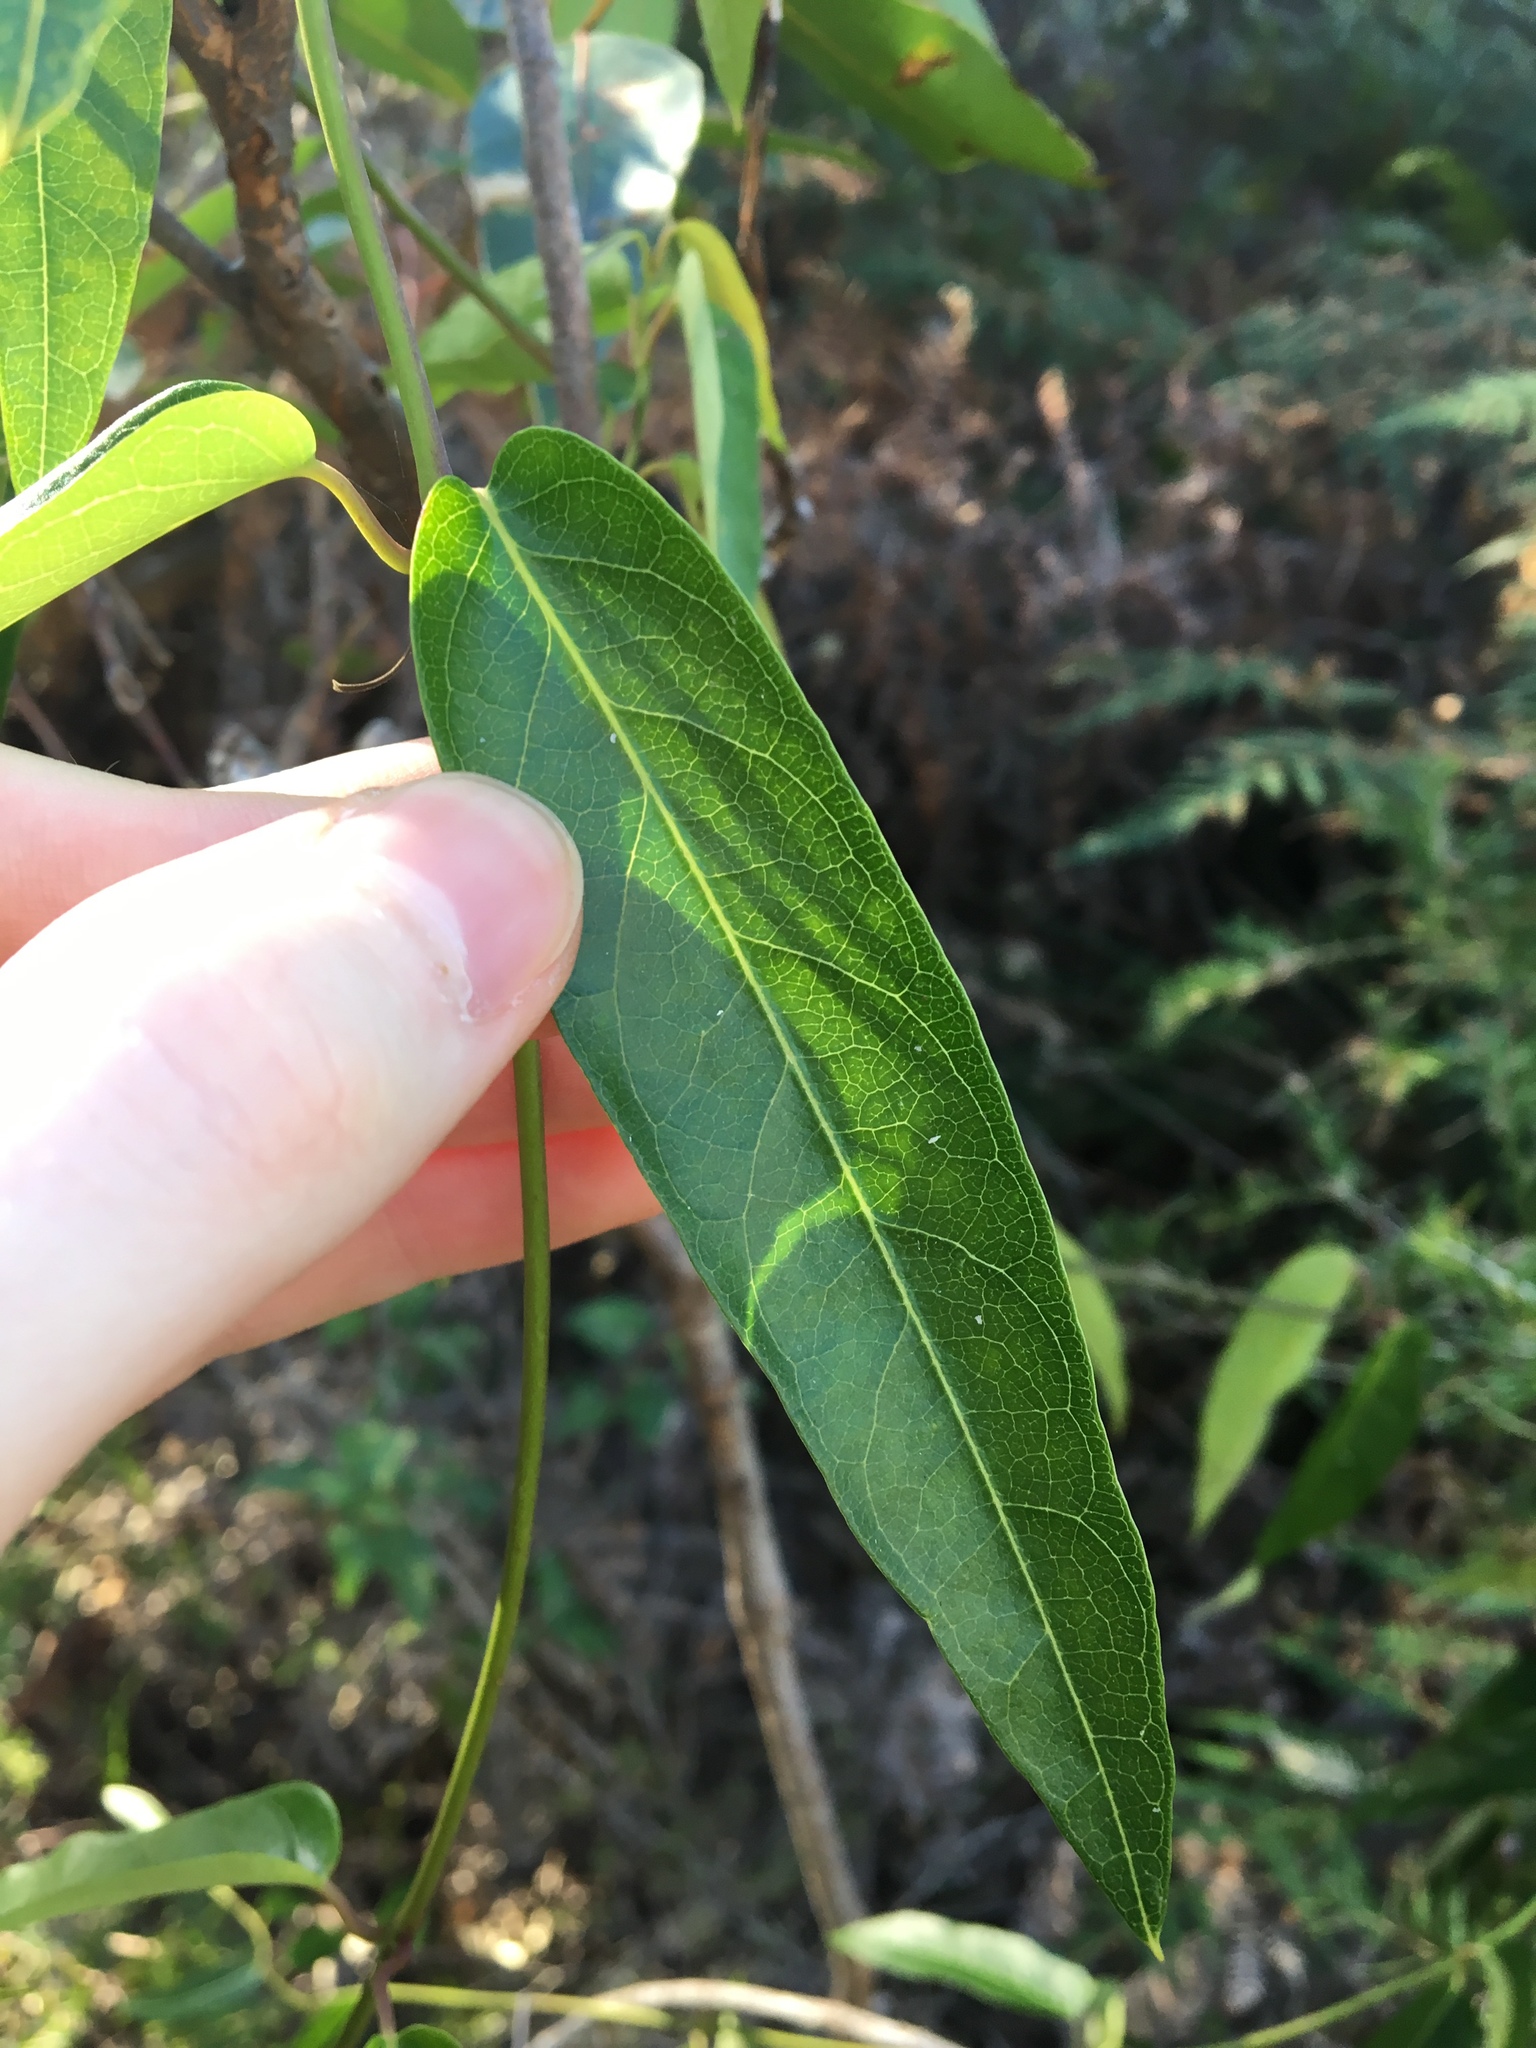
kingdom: Plantae
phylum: Tracheophyta
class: Magnoliopsida
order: Gentianales
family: Apocynaceae
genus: Parsonsia
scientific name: Parsonsia straminea
